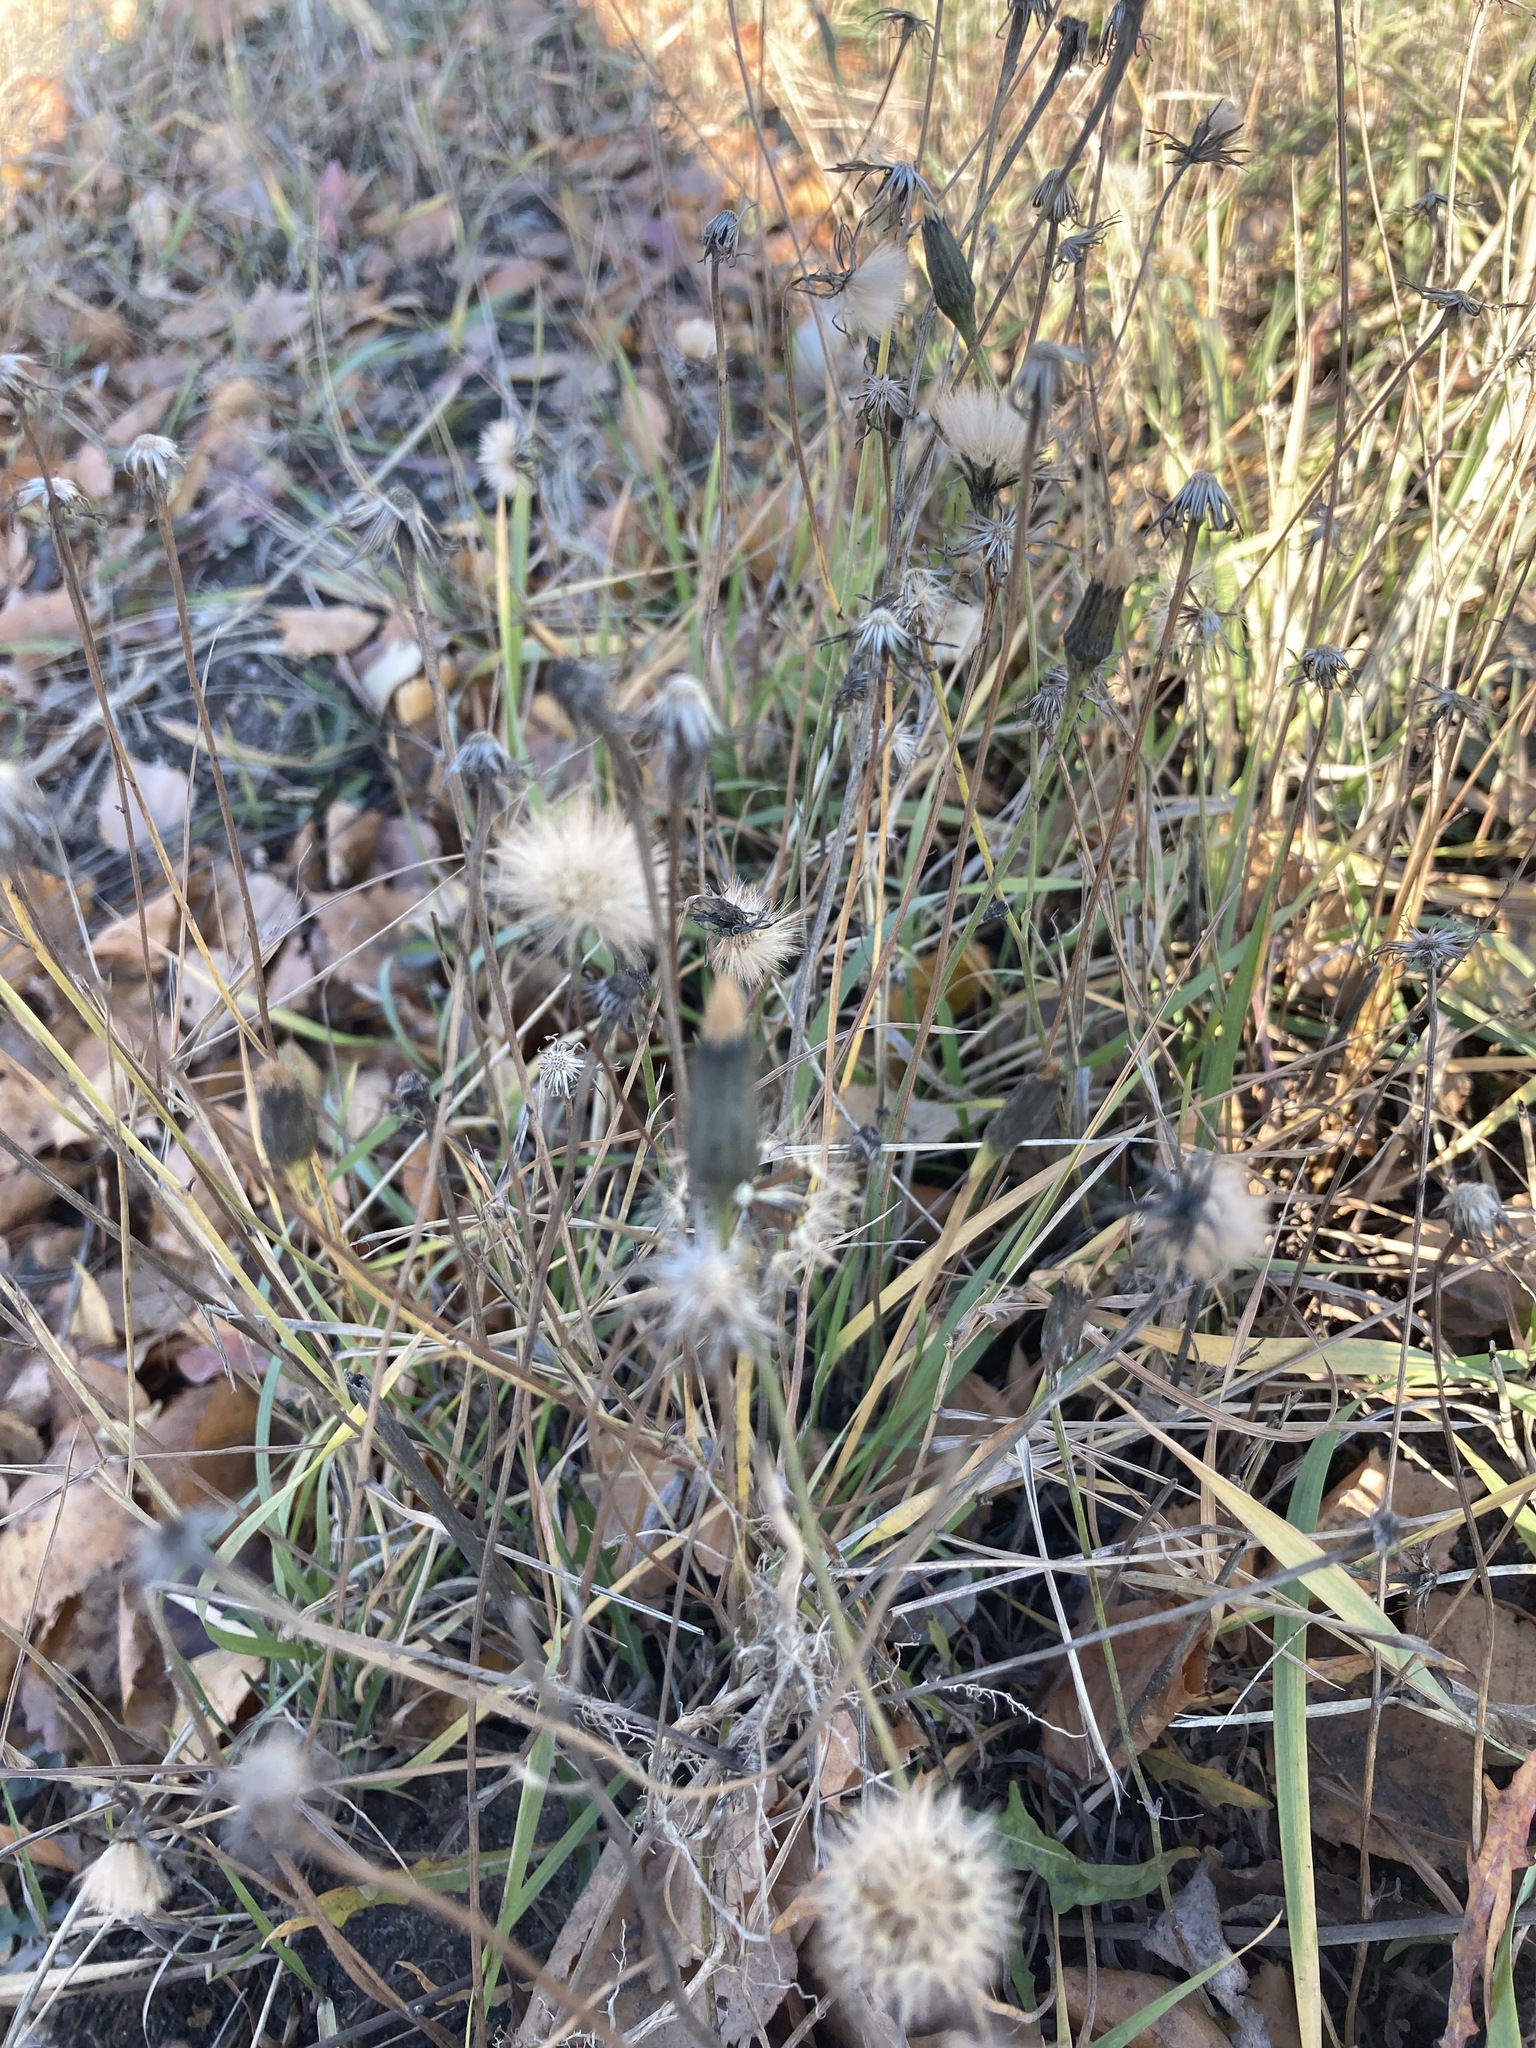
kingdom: Plantae
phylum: Tracheophyta
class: Magnoliopsida
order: Asterales
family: Asteraceae
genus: Scorzoneroides
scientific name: Scorzoneroides autumnalis
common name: Autumn hawkbit
